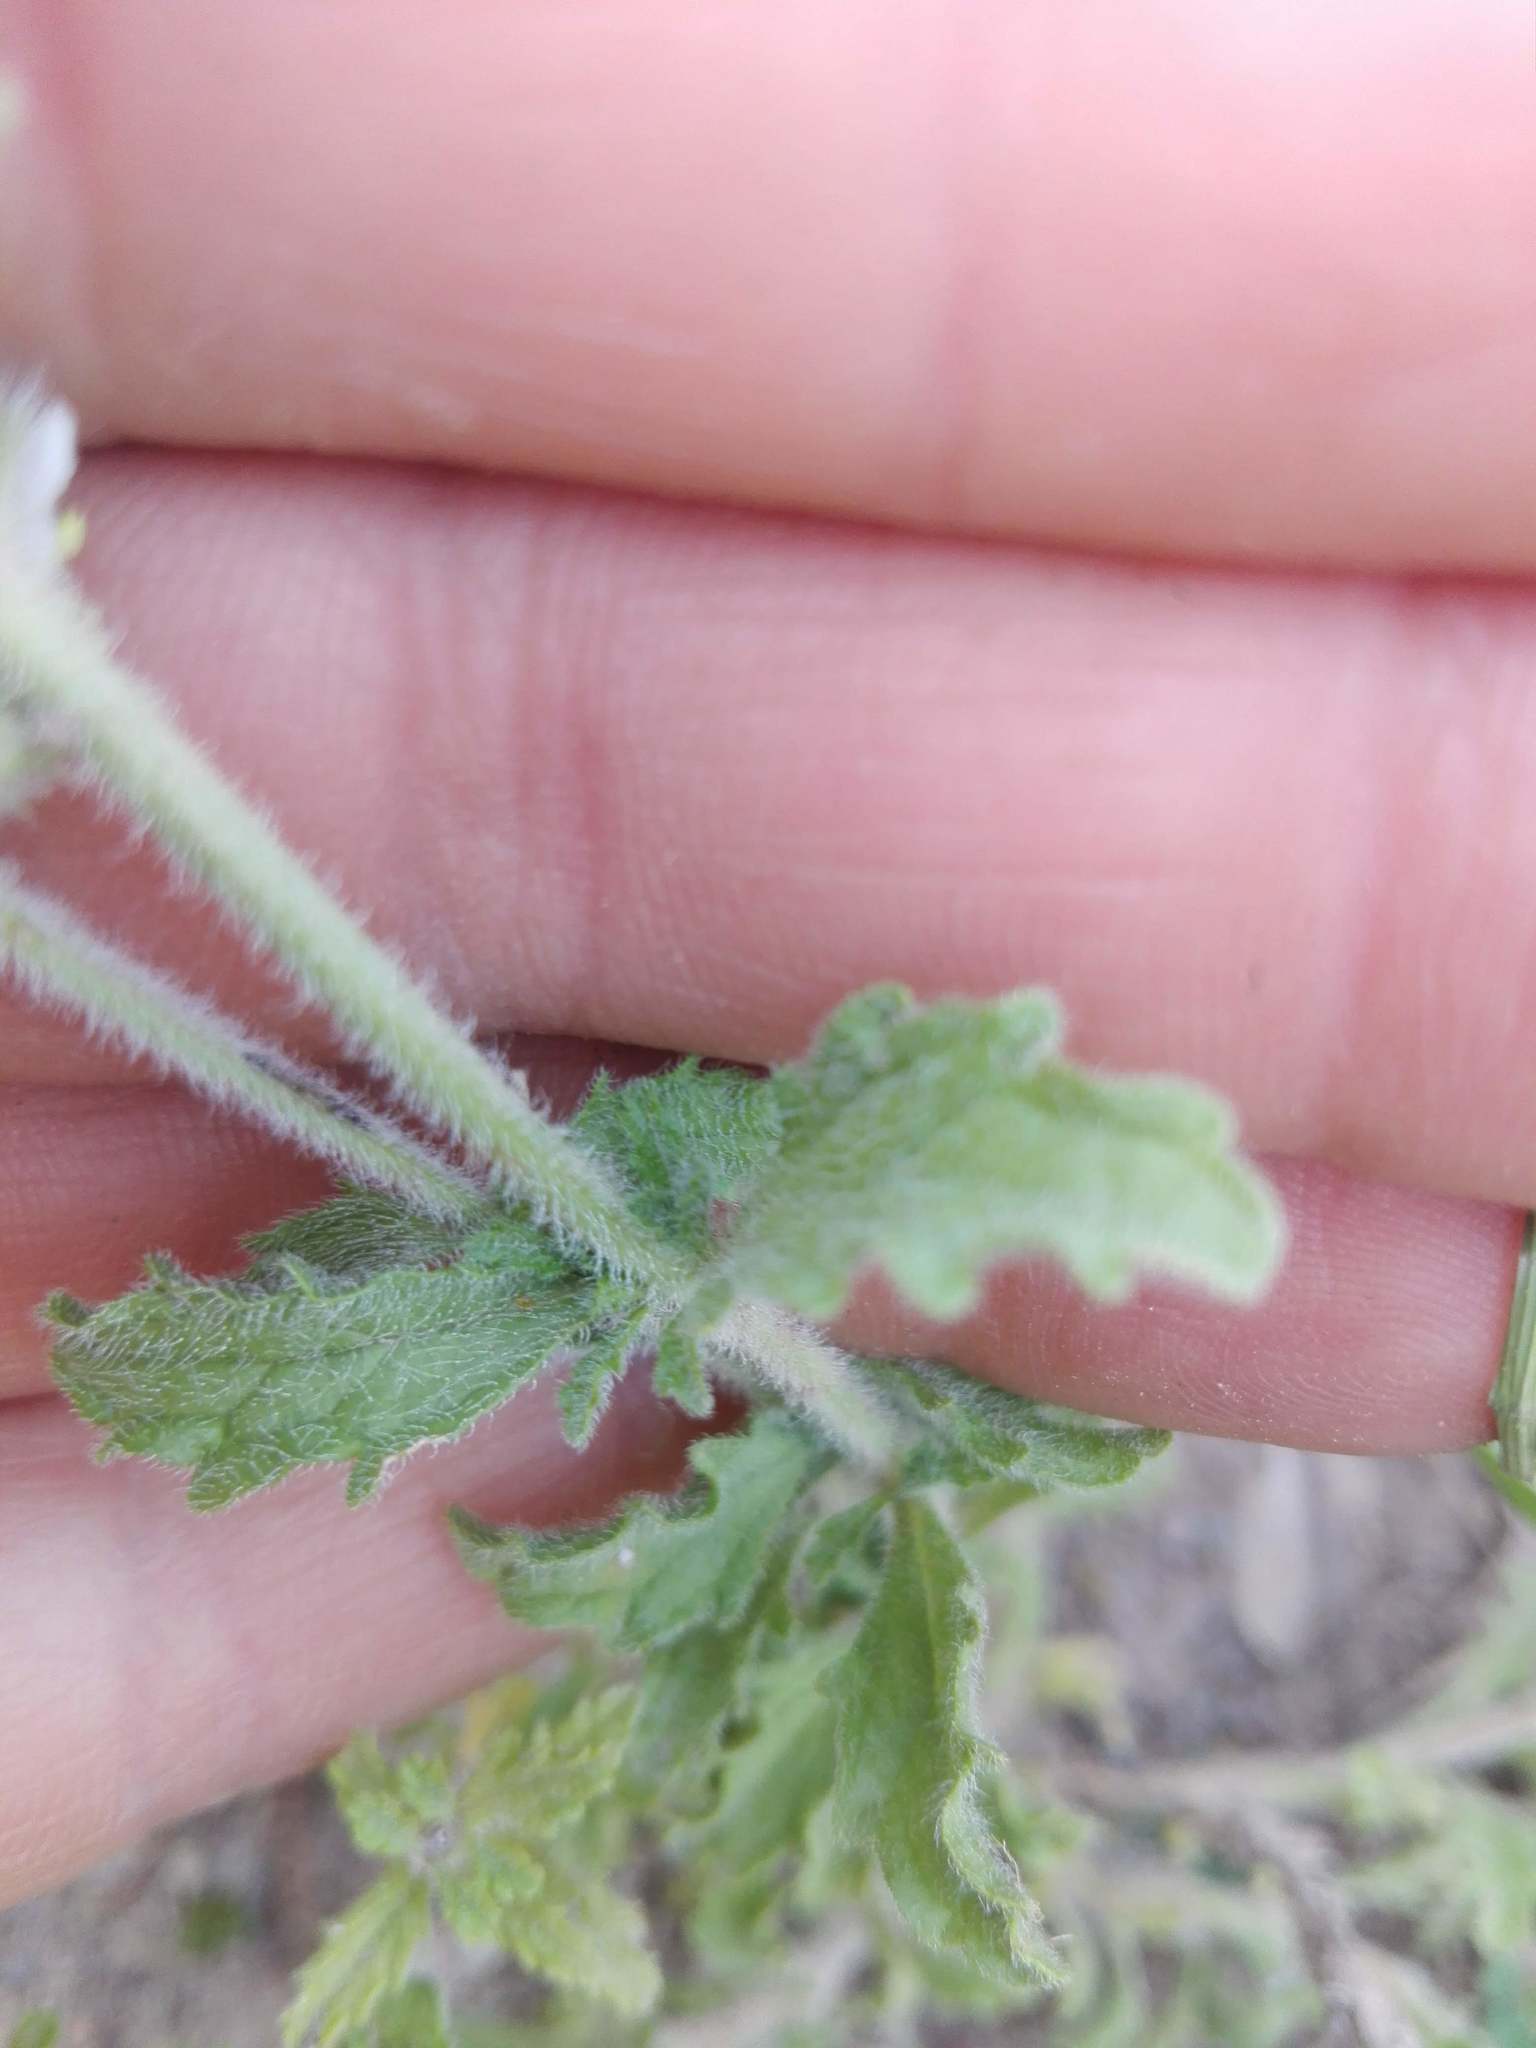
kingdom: Plantae
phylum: Tracheophyta
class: Magnoliopsida
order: Lamiales
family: Lamiaceae
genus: Sideritis
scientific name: Sideritis hirsuta
